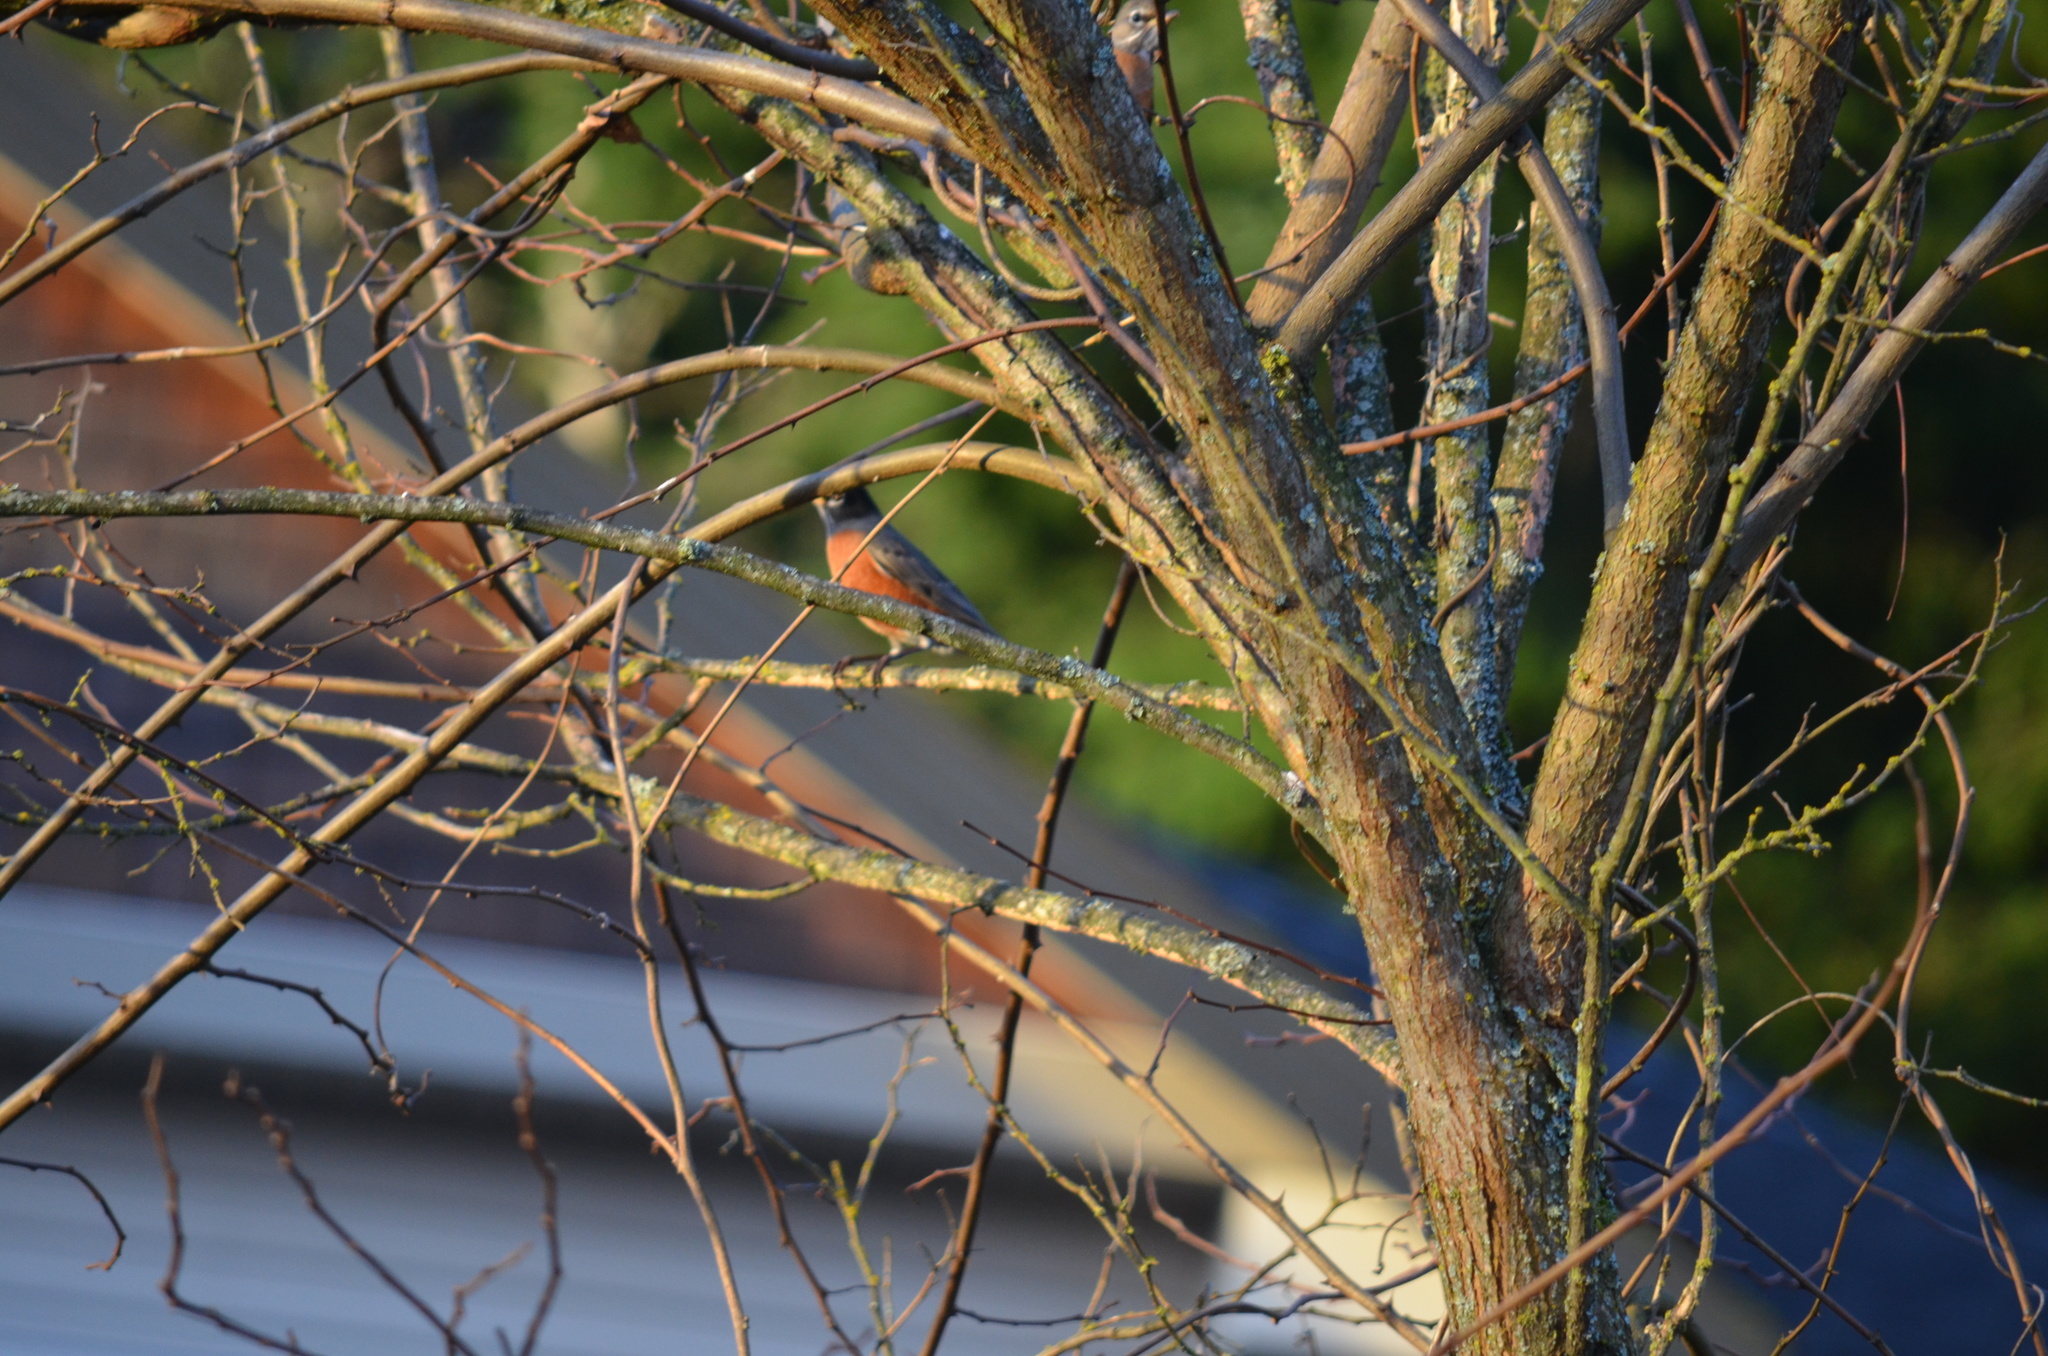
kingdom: Animalia
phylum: Chordata
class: Aves
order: Passeriformes
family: Turdidae
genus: Turdus
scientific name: Turdus migratorius
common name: American robin
